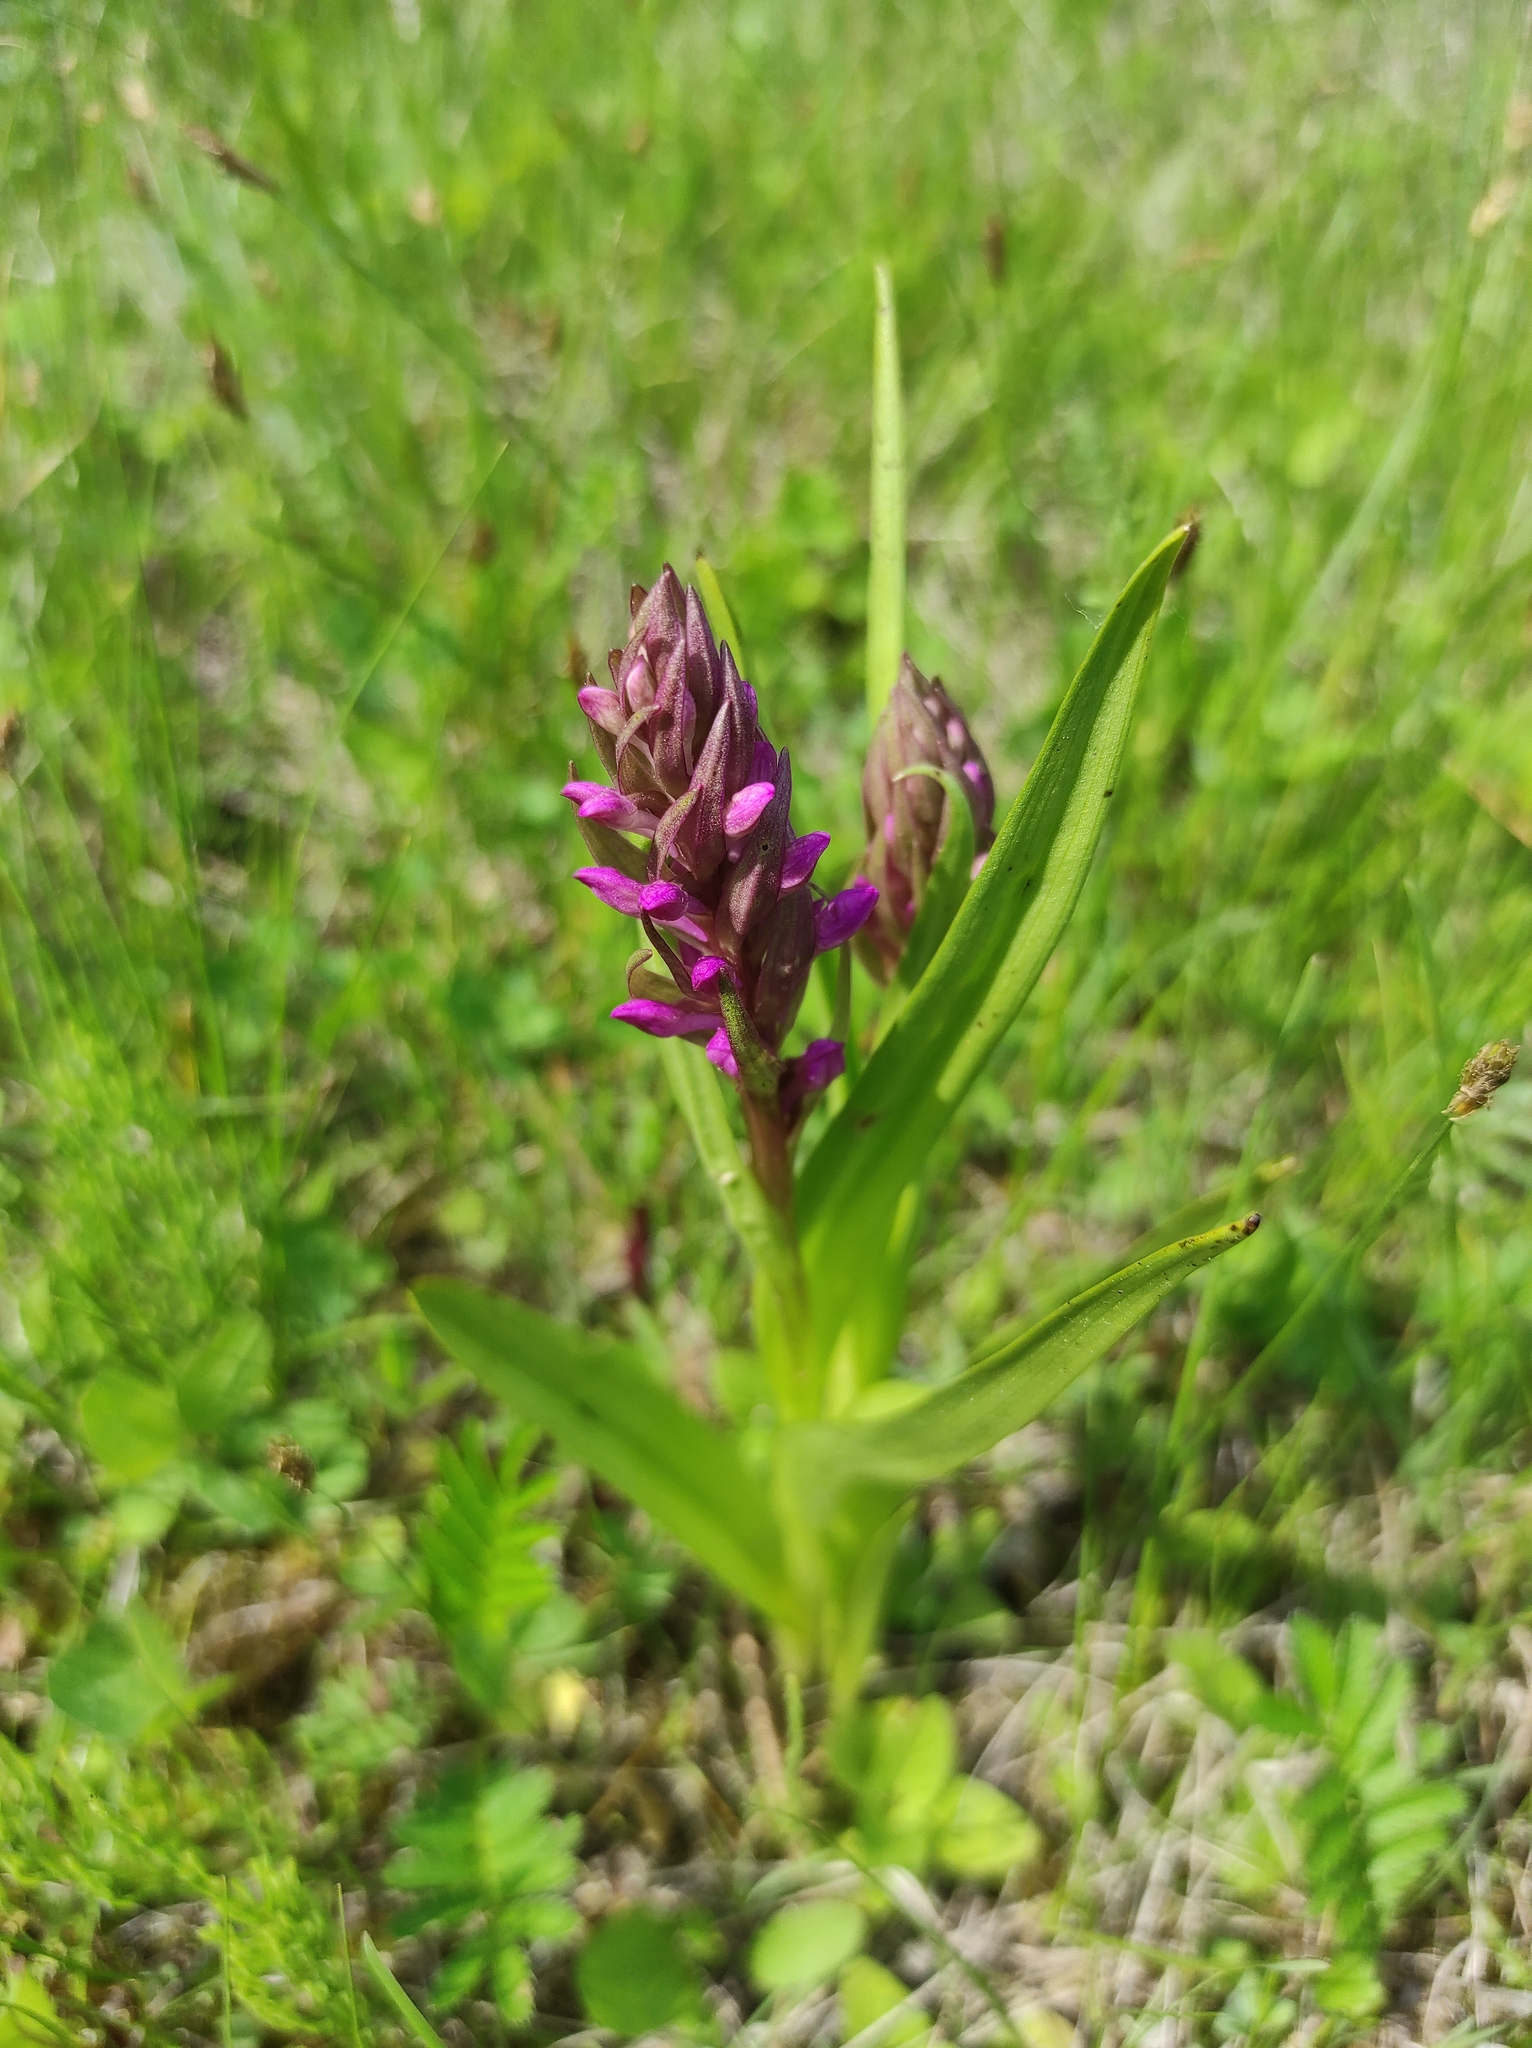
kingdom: Plantae
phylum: Tracheophyta
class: Liliopsida
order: Asparagales
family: Orchidaceae
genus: Dactylorhiza
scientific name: Dactylorhiza incarnata
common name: Early marsh-orchid
